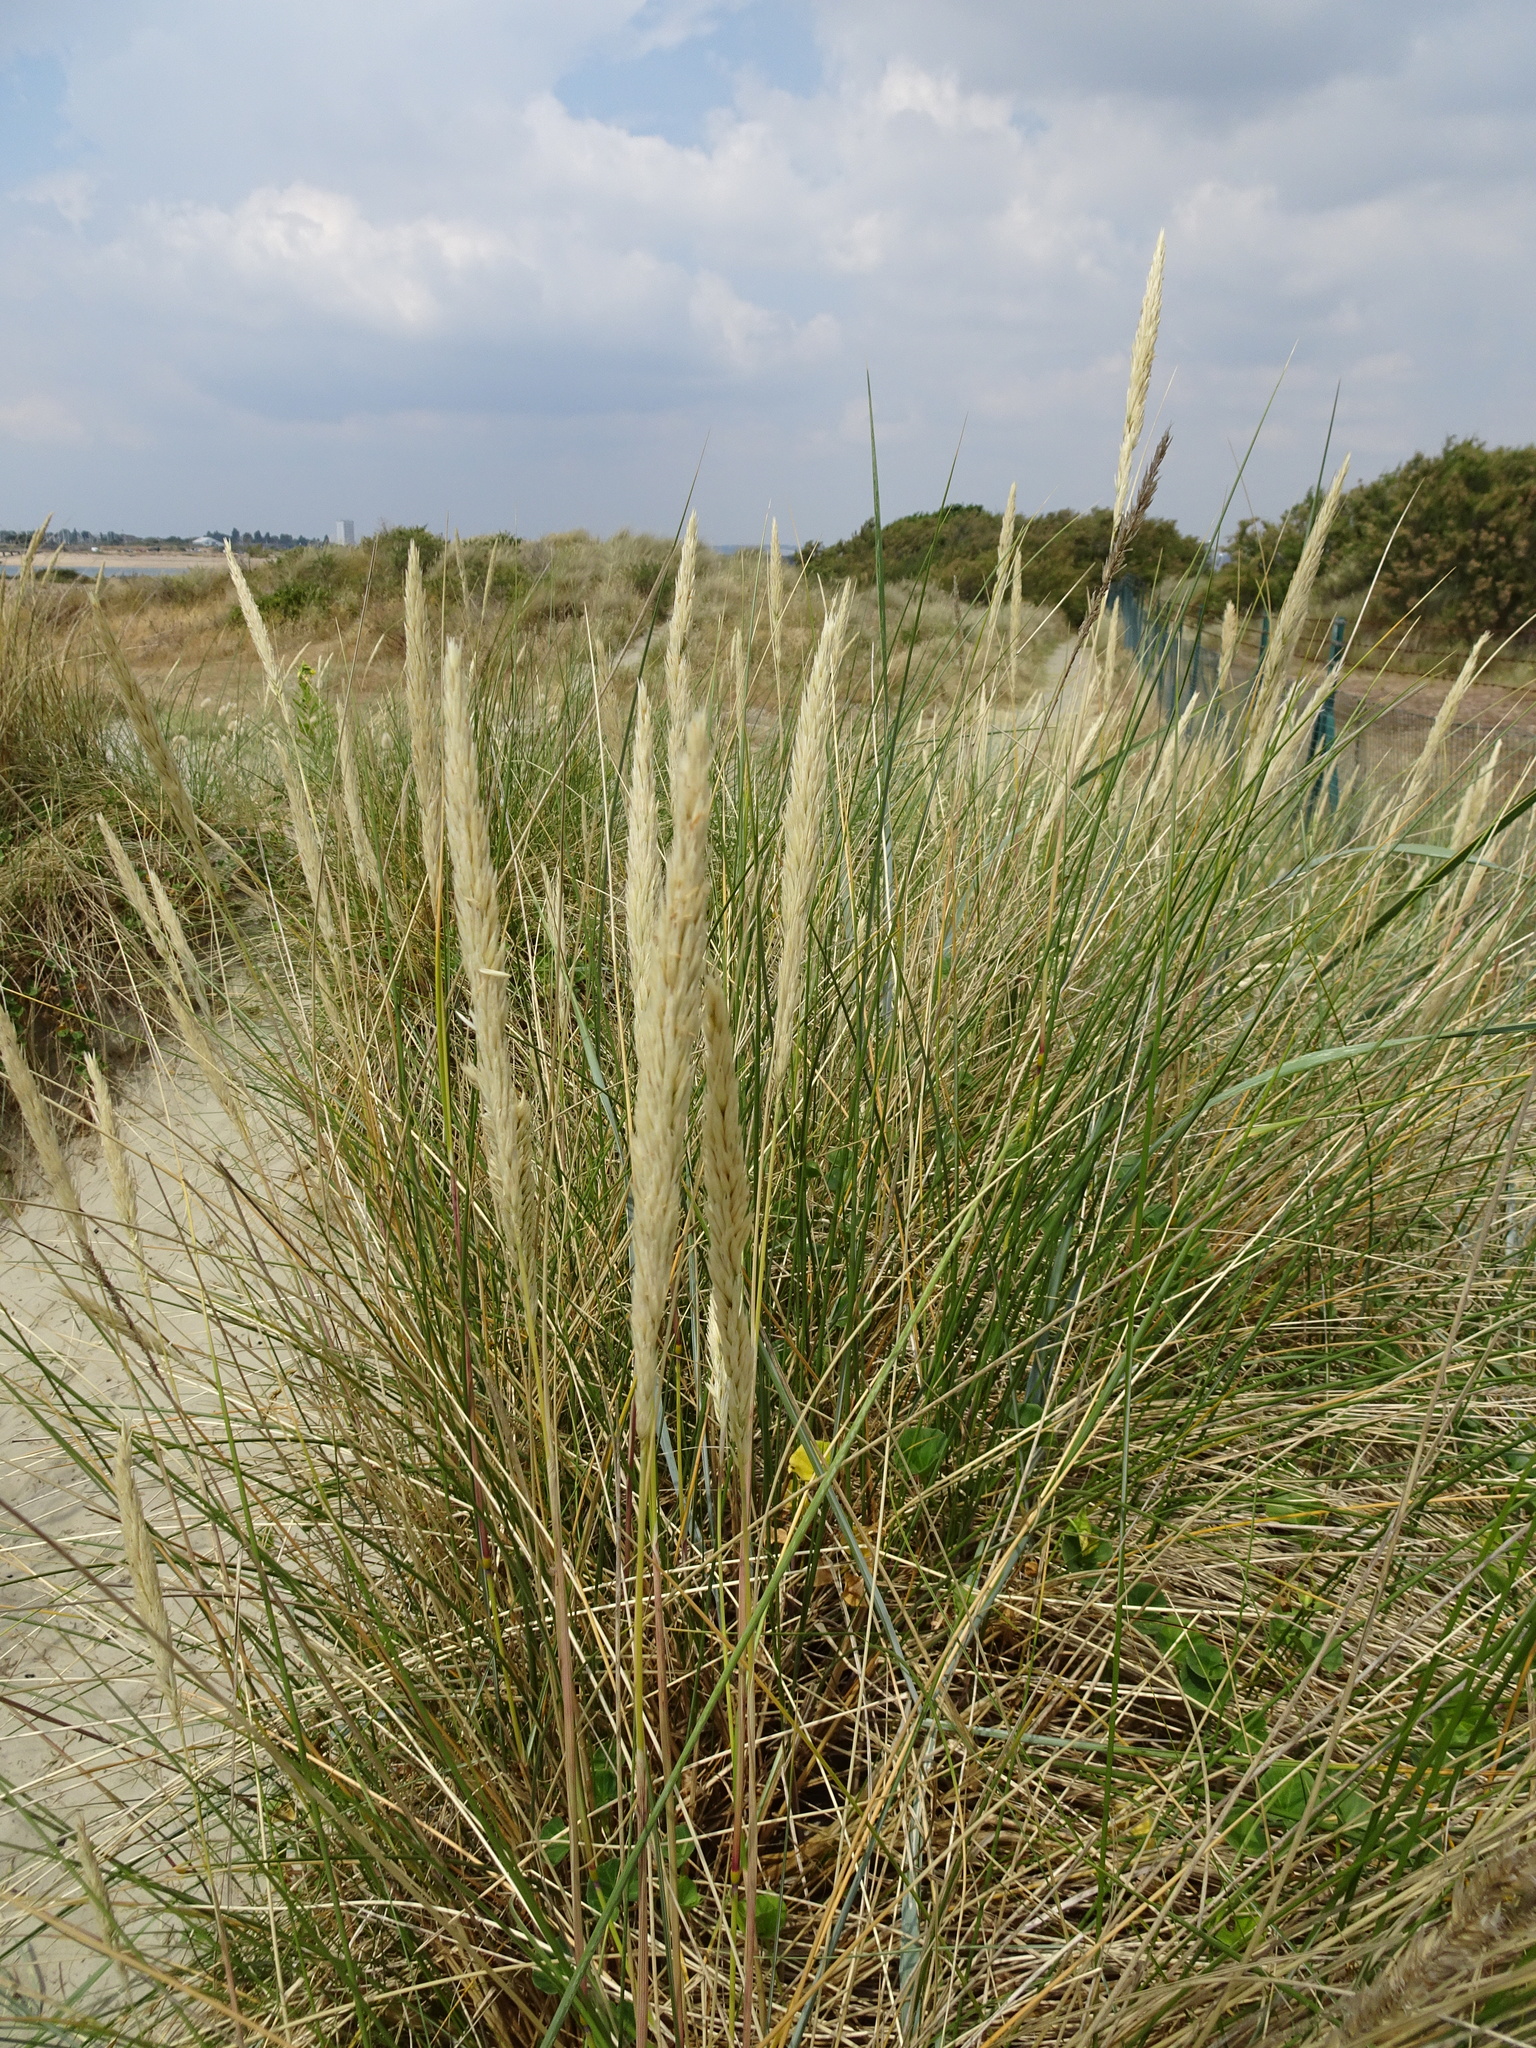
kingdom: Plantae
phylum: Tracheophyta
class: Liliopsida
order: Poales
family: Poaceae
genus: Calamagrostis
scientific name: Calamagrostis arenaria
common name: European beachgrass
